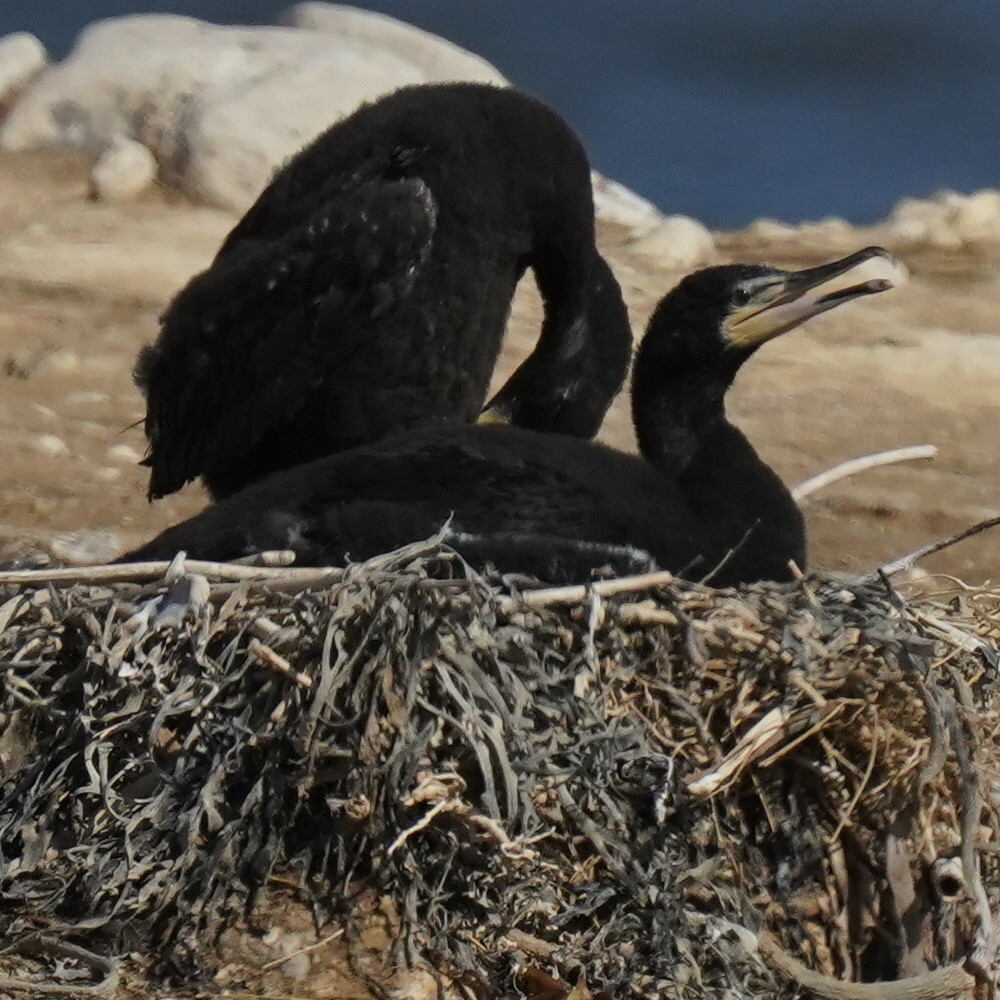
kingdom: Animalia
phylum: Chordata
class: Aves
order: Suliformes
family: Phalacrocoracidae
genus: Phalacrocorax
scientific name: Phalacrocorax carbo
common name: Great cormorant
